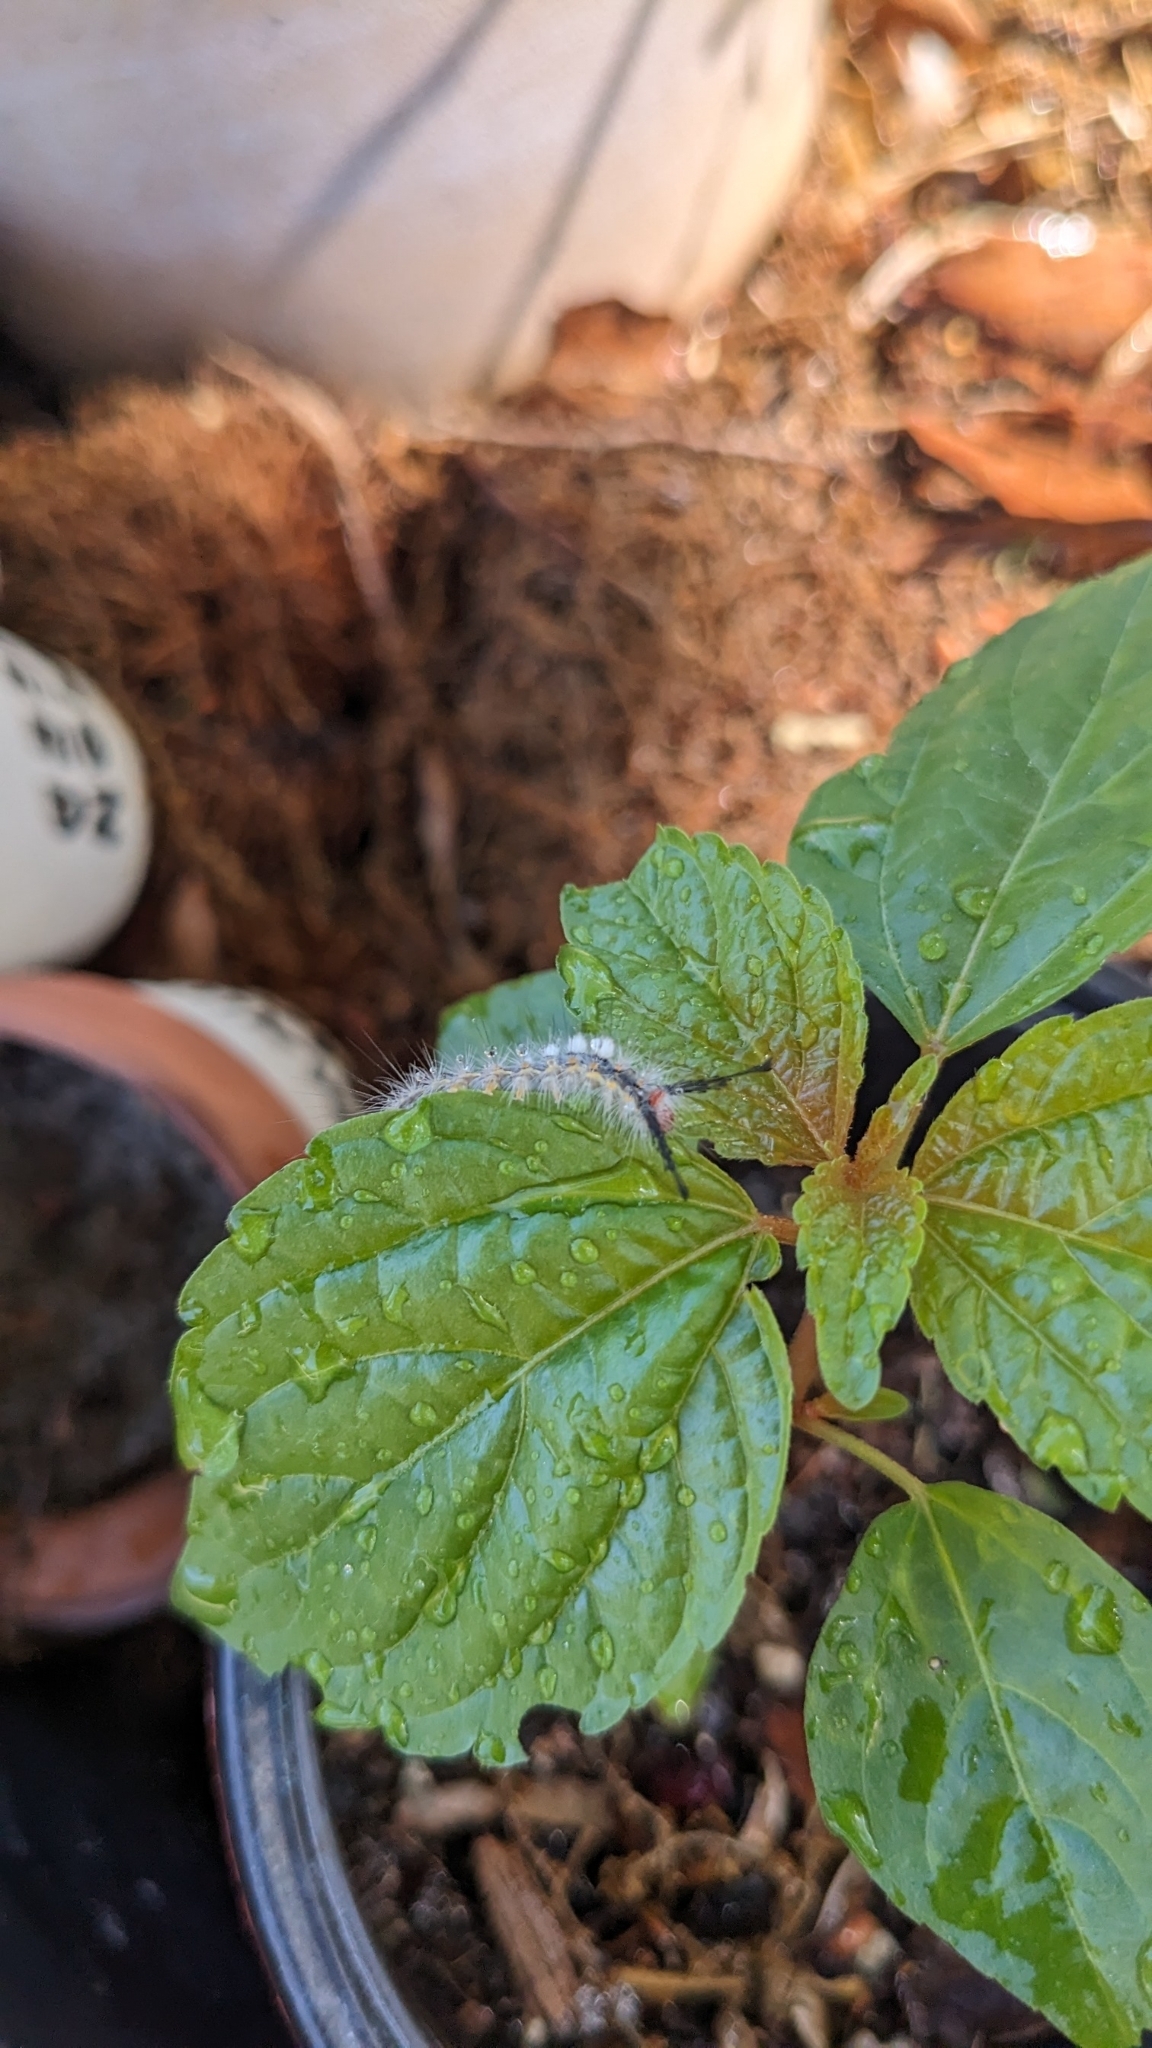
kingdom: Animalia
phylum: Arthropoda
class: Insecta
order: Lepidoptera
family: Erebidae
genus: Orgyia
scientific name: Orgyia detrita
